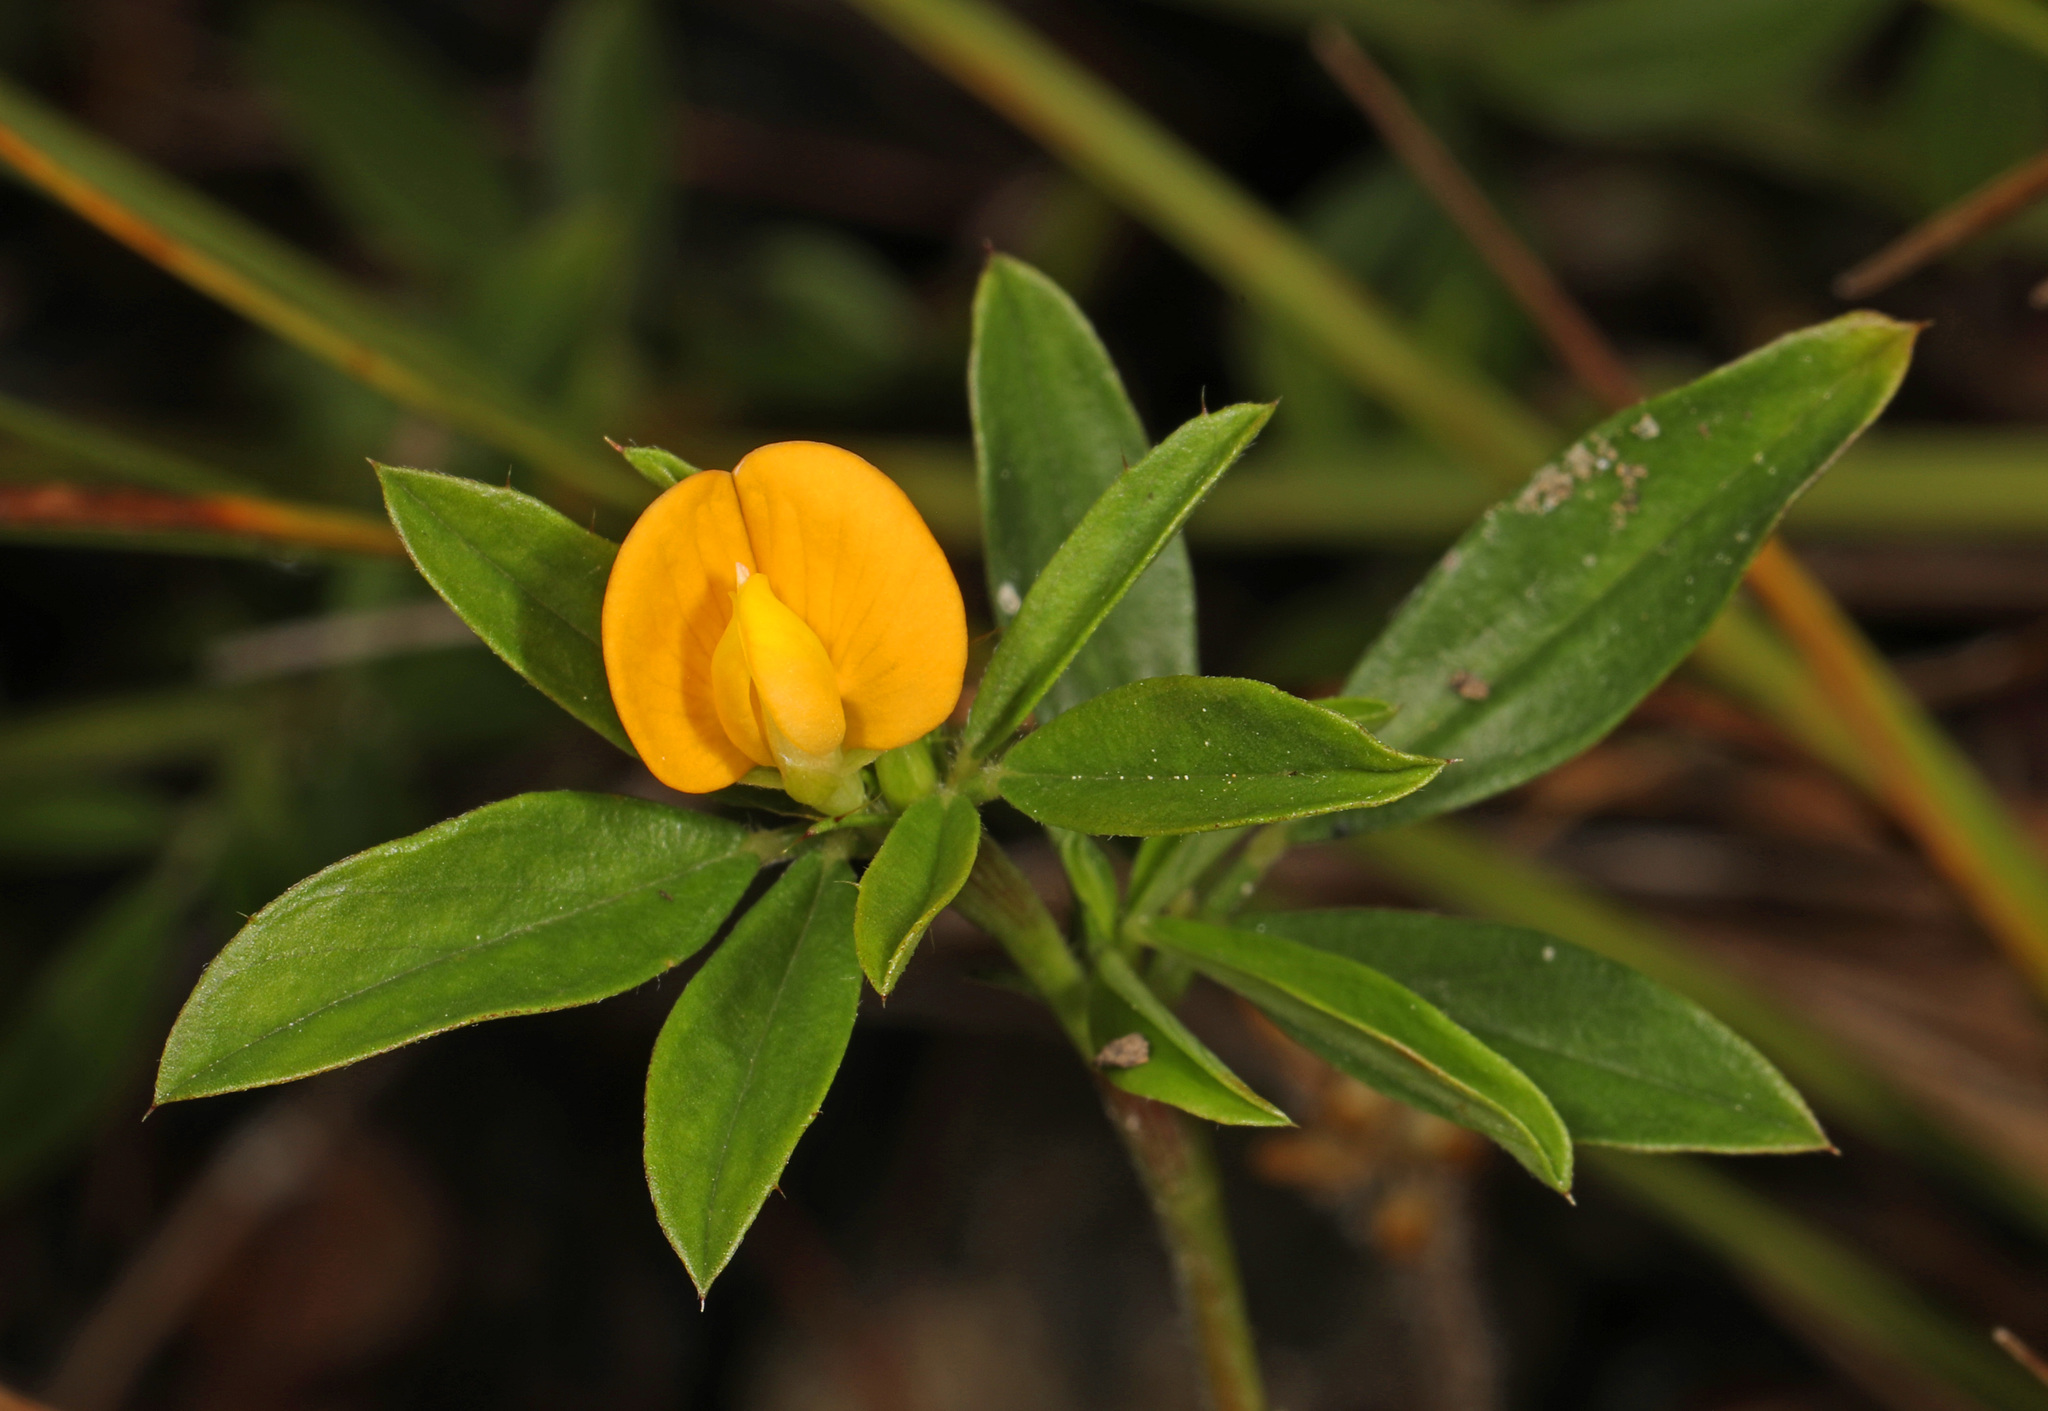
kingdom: Plantae
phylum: Tracheophyta
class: Magnoliopsida
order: Fabales
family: Fabaceae
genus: Stylosanthes
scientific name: Stylosanthes biflora
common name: Two-flower pencil-flower
